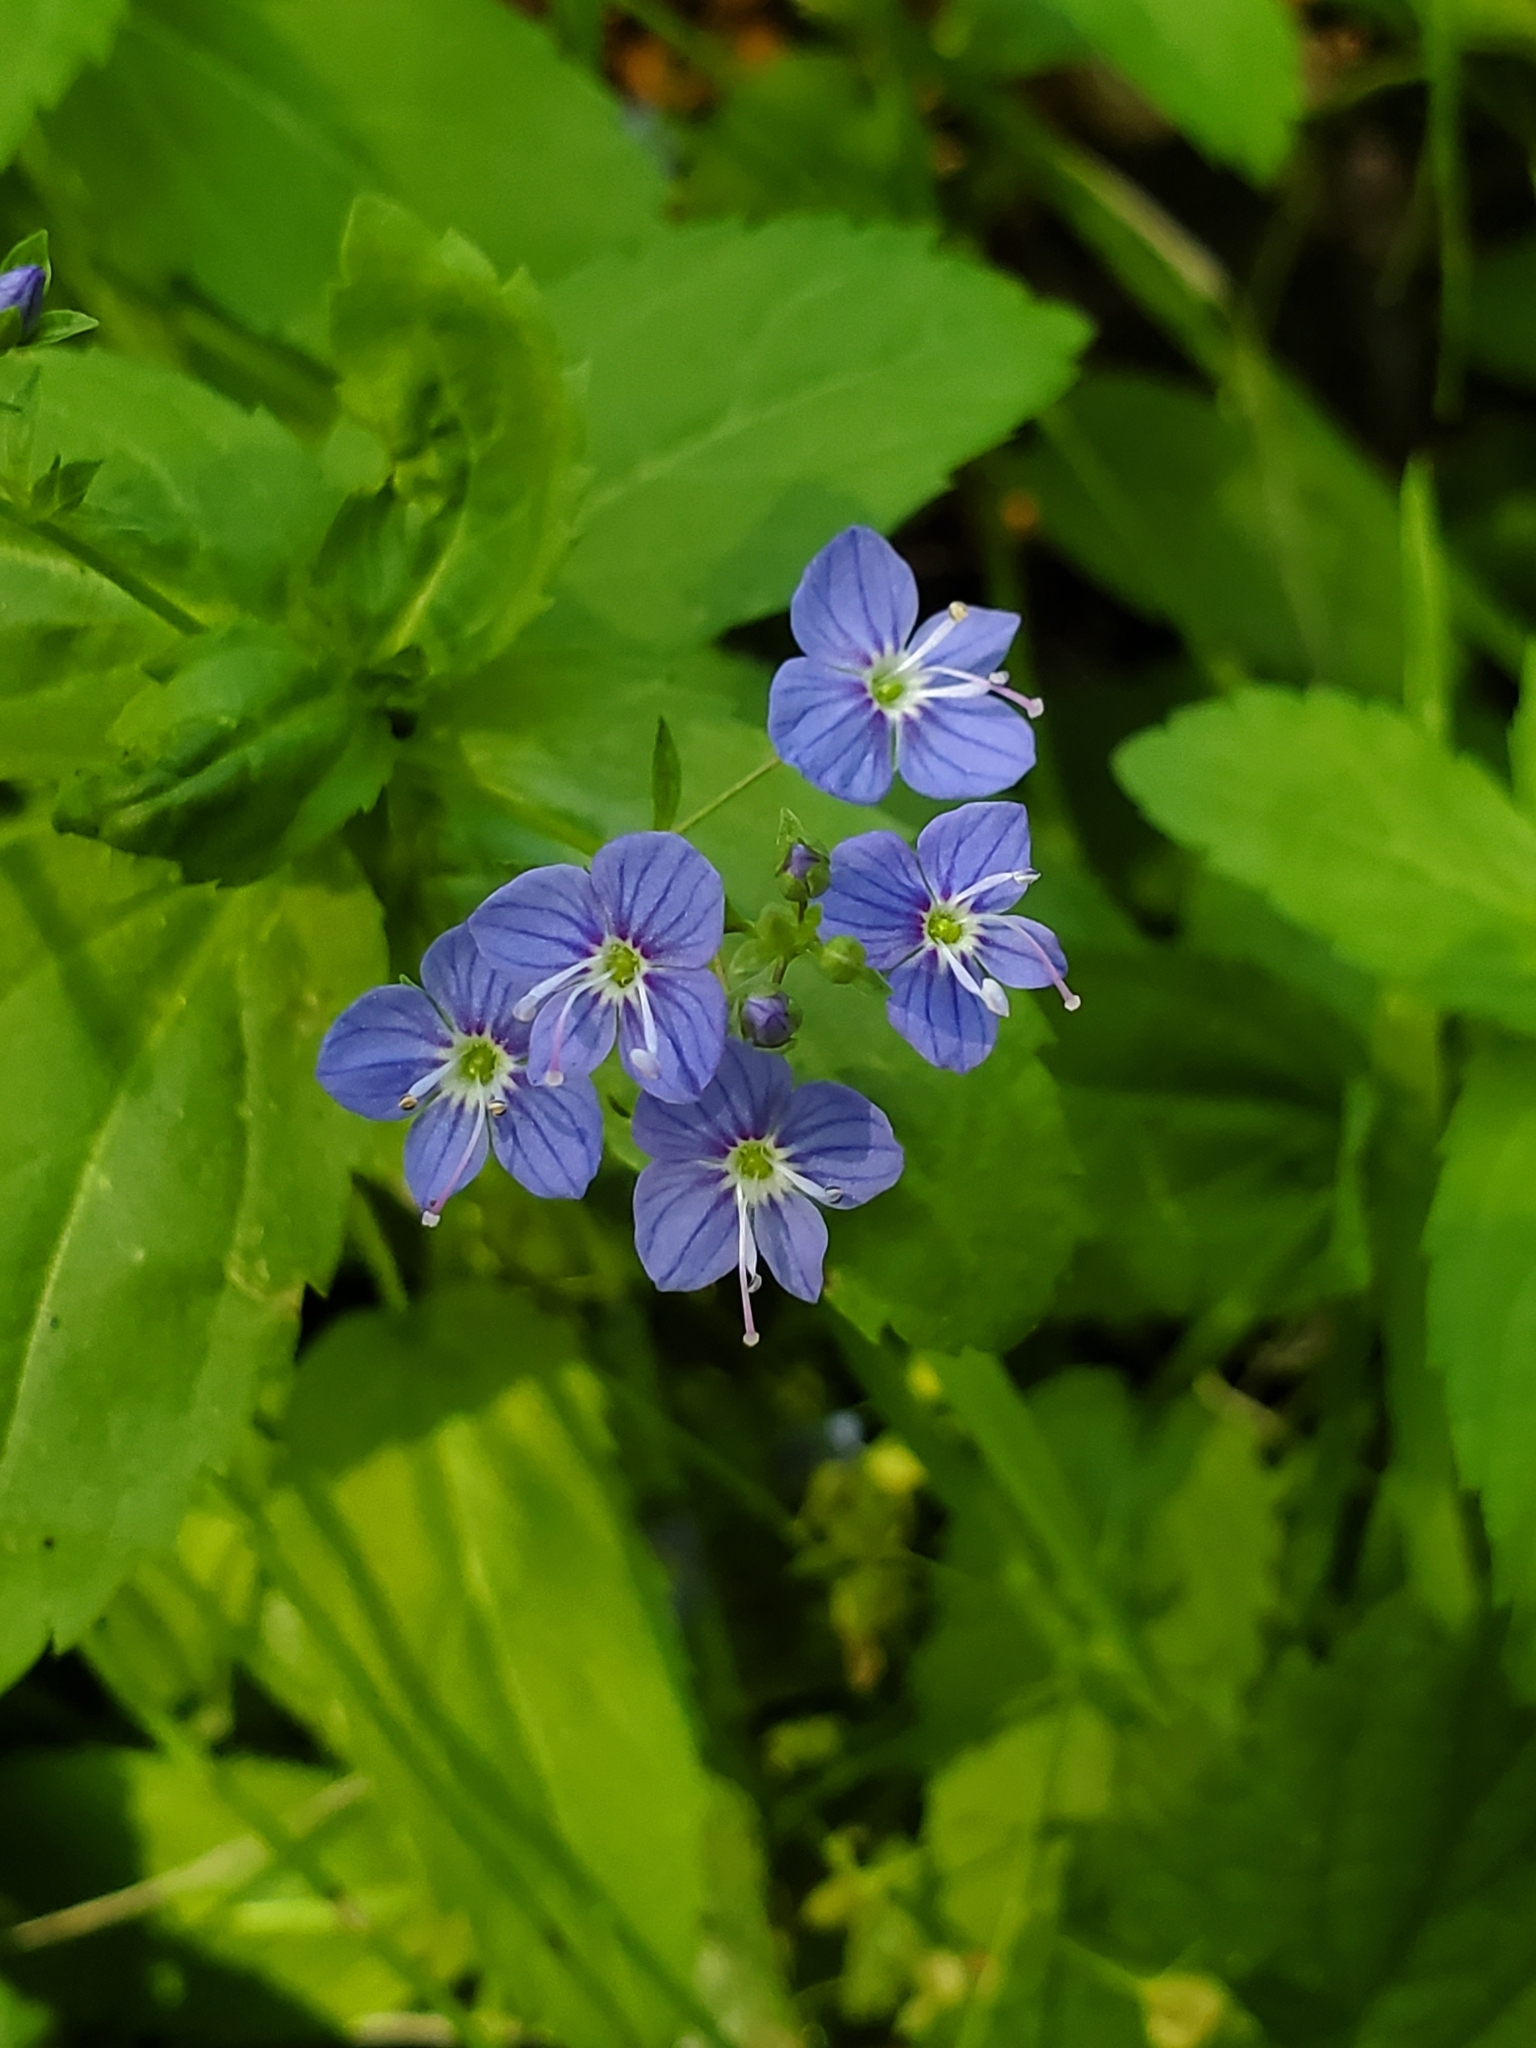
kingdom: Plantae
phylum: Tracheophyta
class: Magnoliopsida
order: Lamiales
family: Plantaginaceae
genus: Veronica
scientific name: Veronica americana
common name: American brooklime
